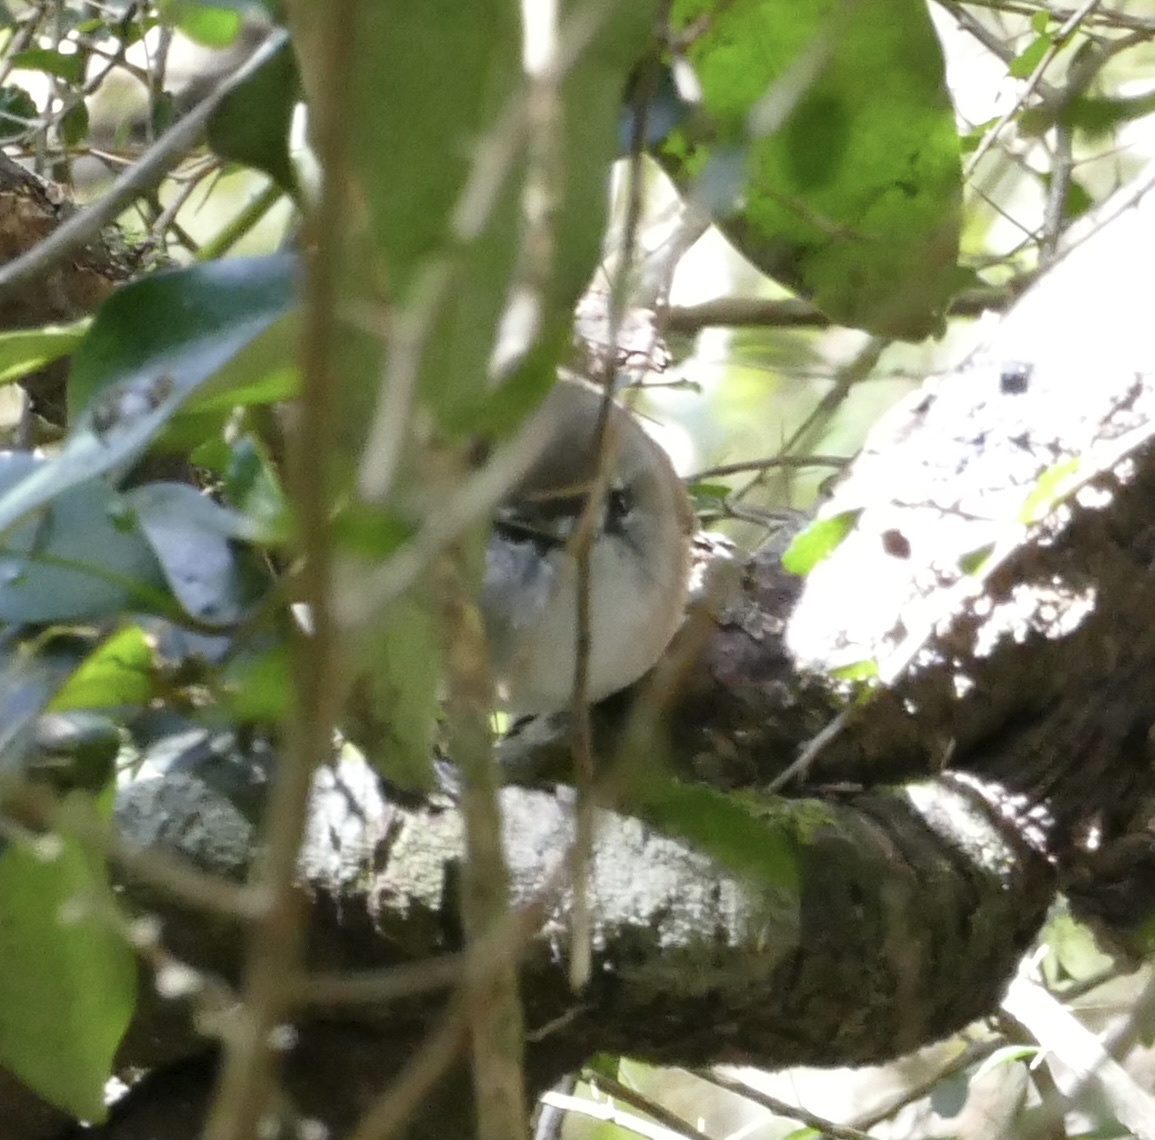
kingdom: Animalia
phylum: Chordata
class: Aves
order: Passeriformes
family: Acanthizidae
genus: Gerygone
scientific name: Gerygone mouki
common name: Brown gerygone
